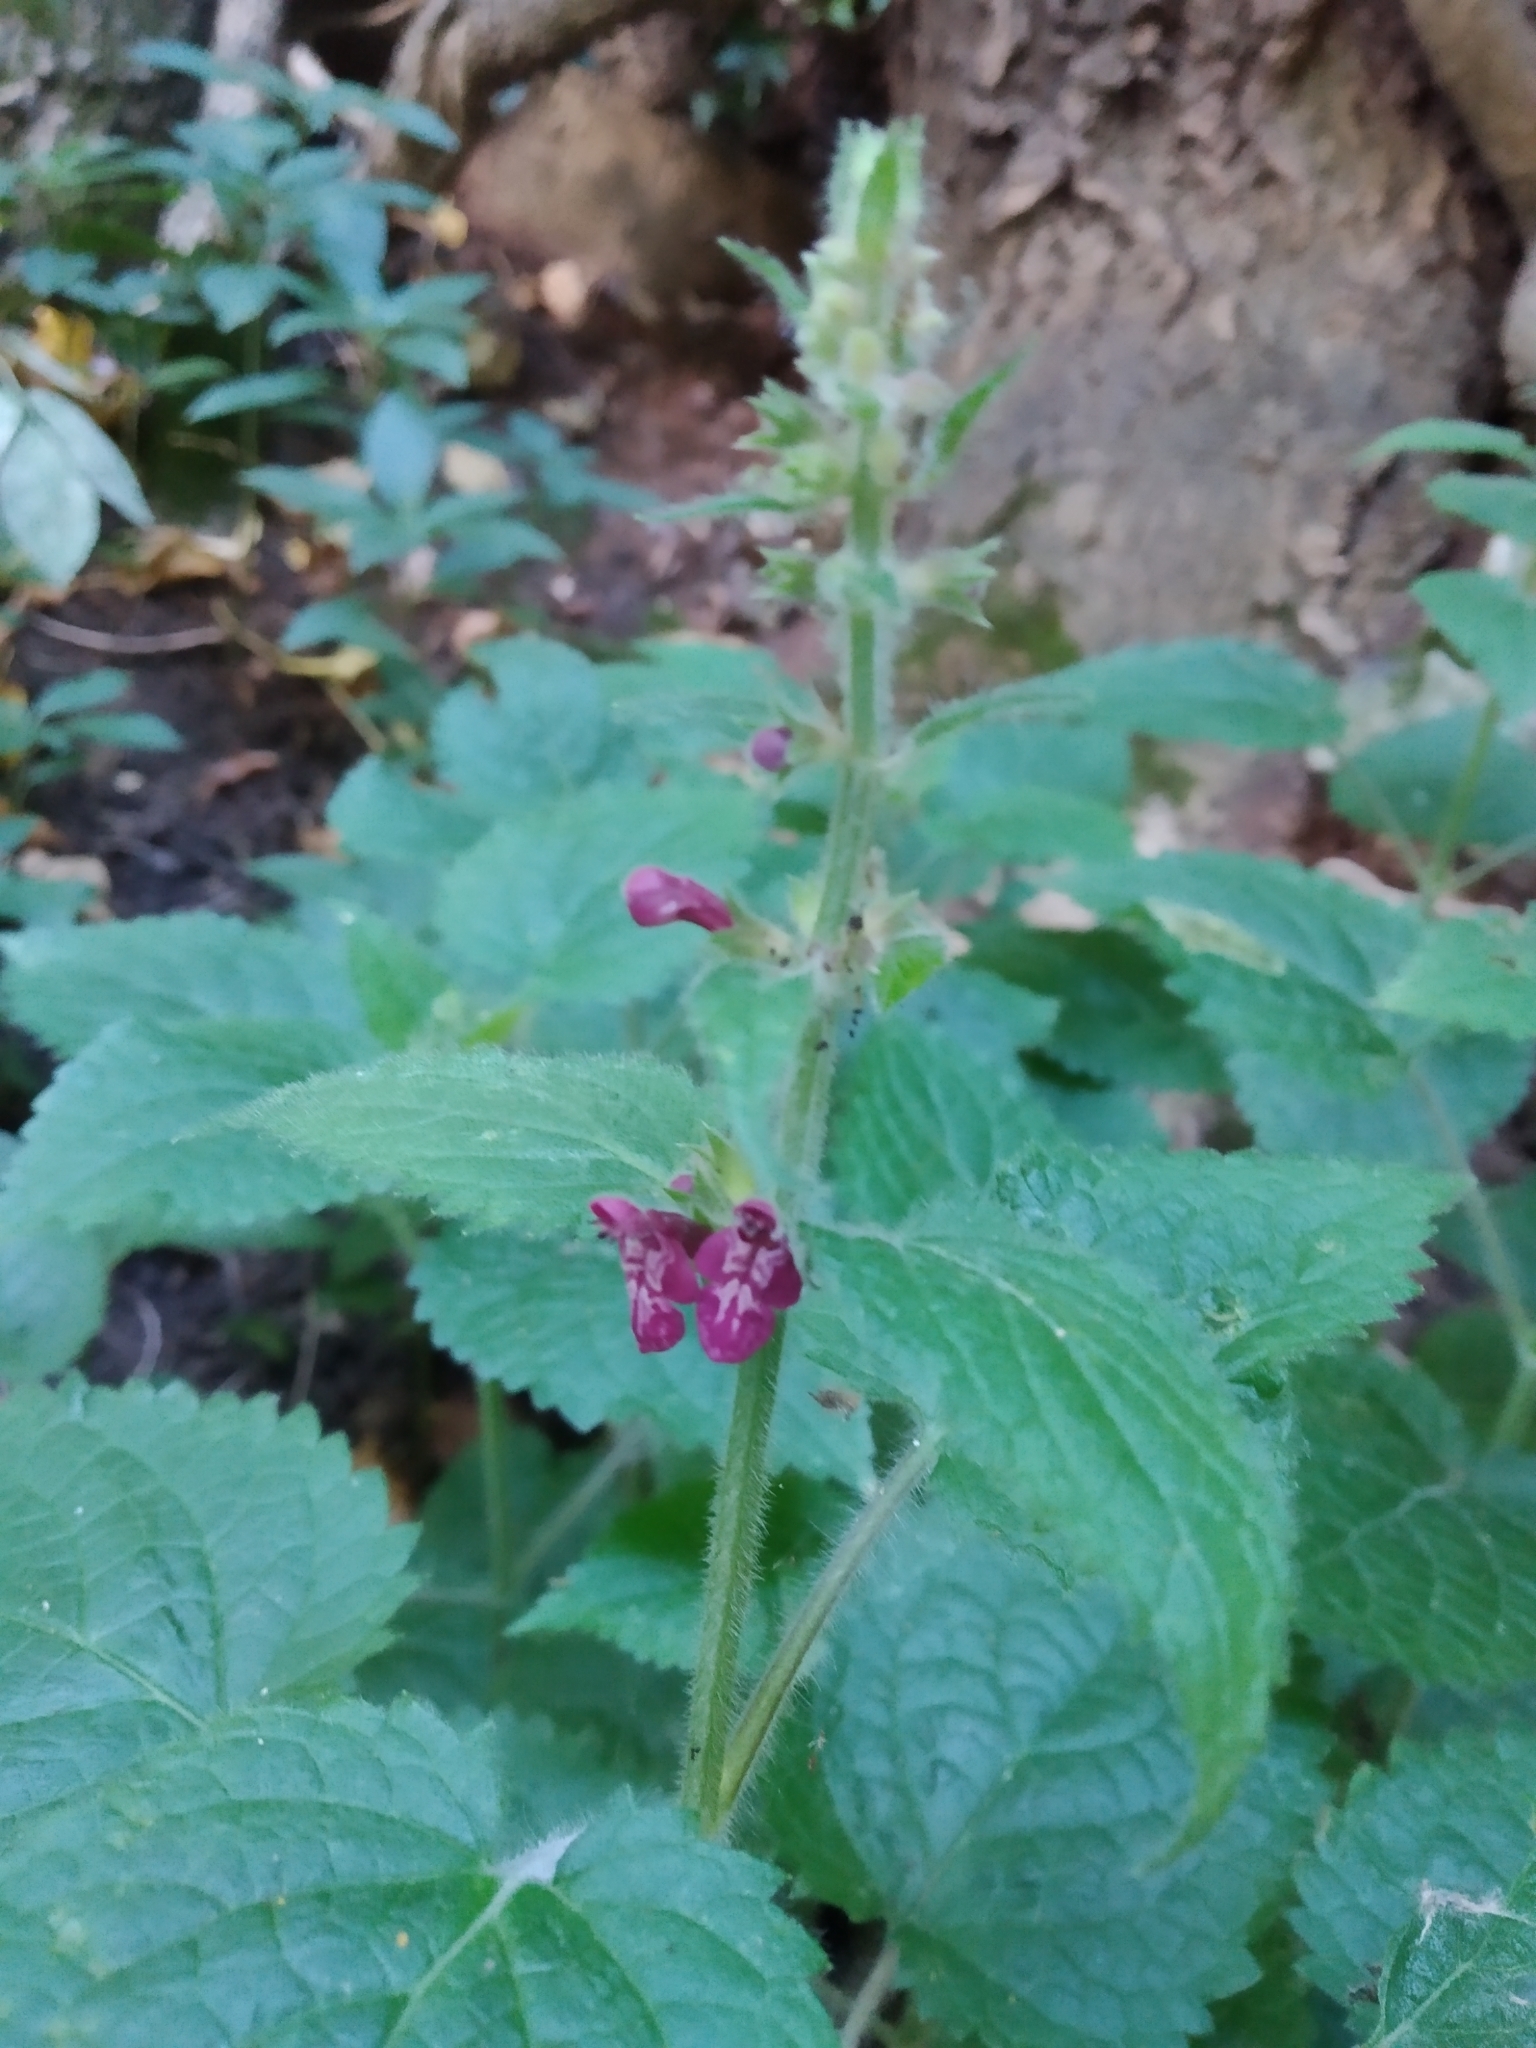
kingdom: Plantae
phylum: Tracheophyta
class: Magnoliopsida
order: Lamiales
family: Lamiaceae
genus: Stachys
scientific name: Stachys sylvatica
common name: Hedge woundwort
